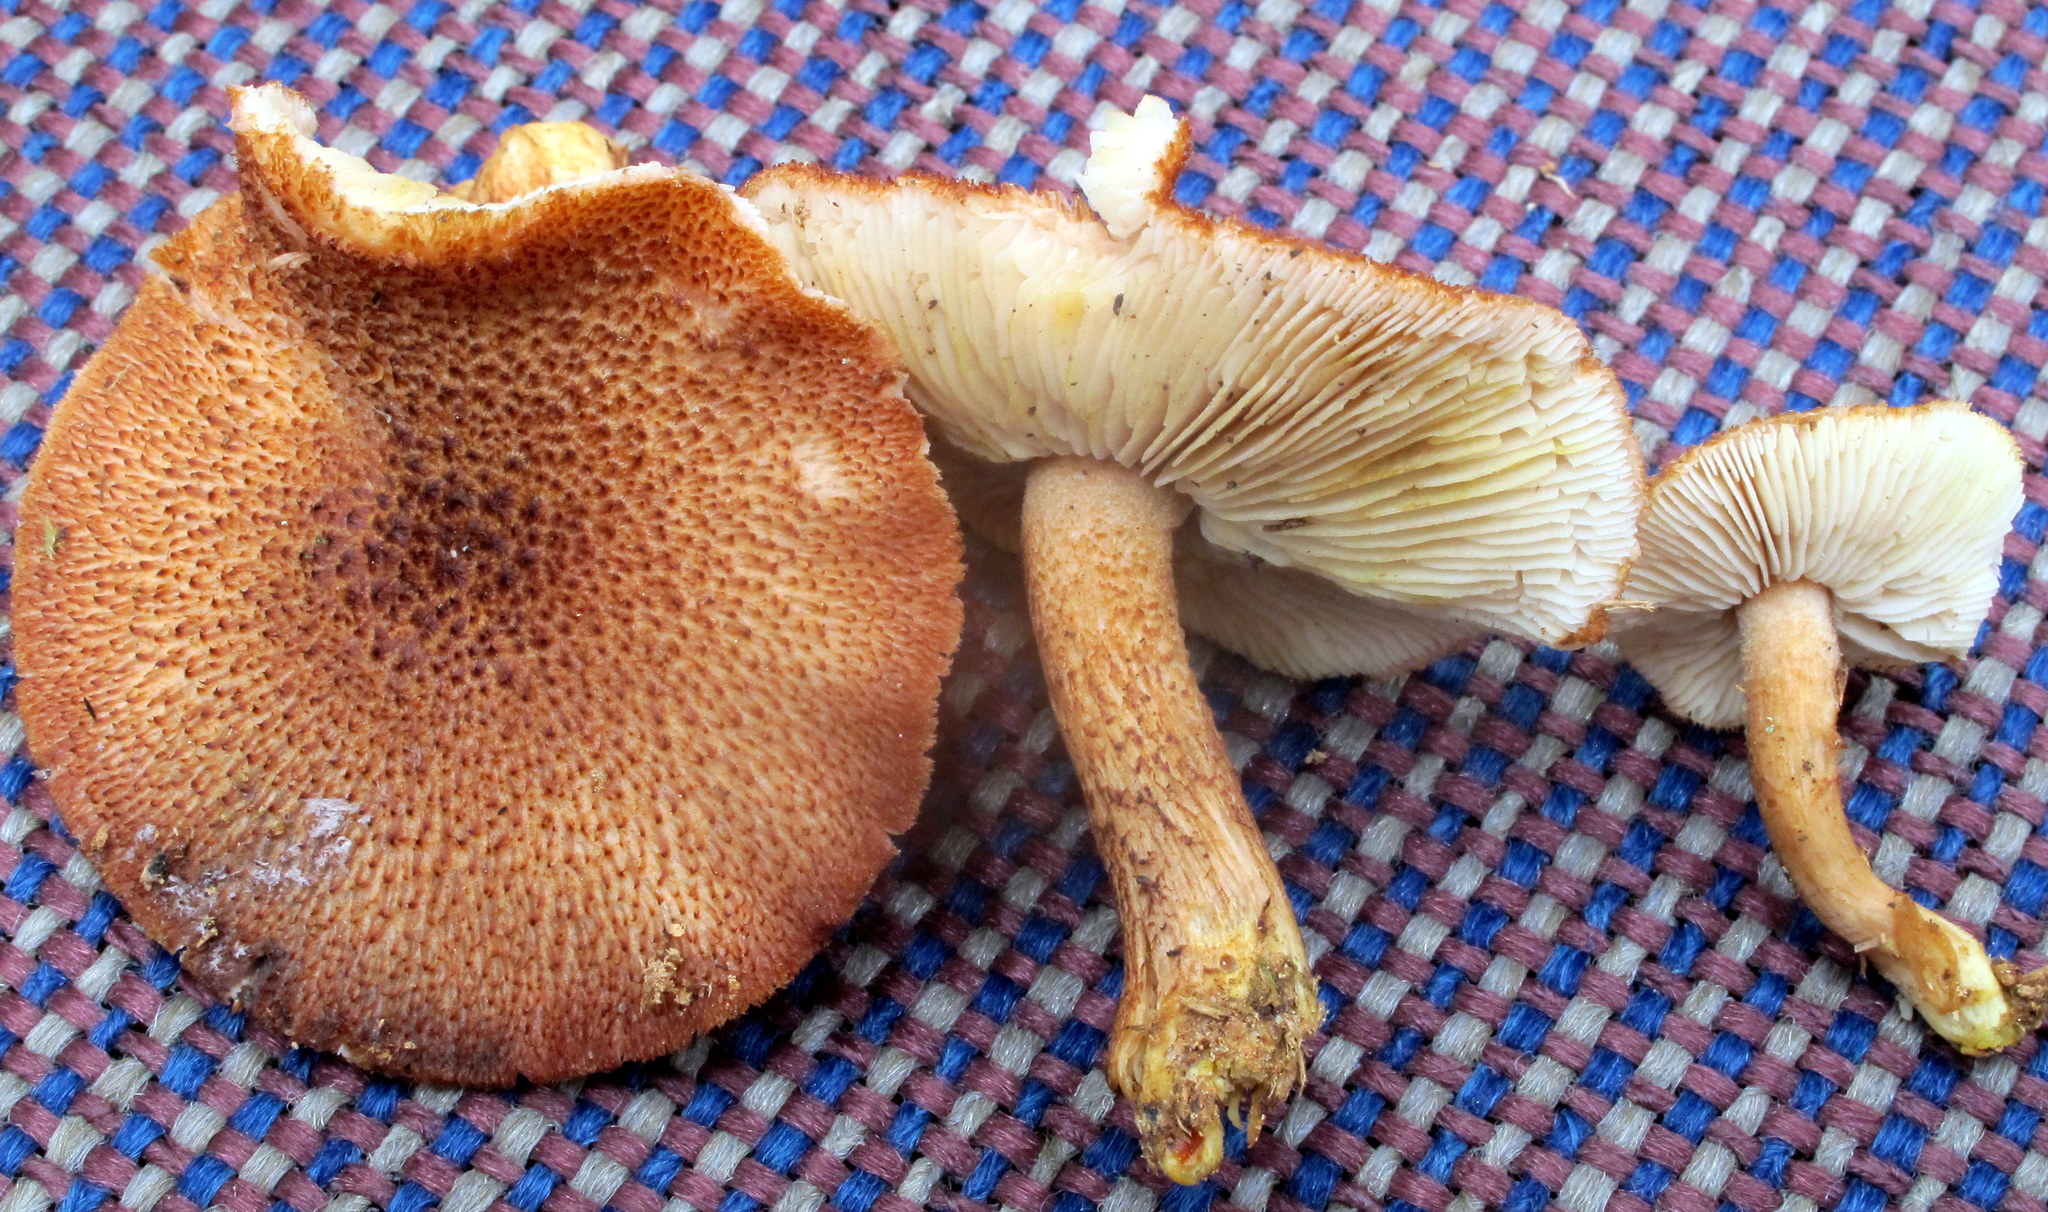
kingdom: Fungi
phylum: Basidiomycota
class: Agaricomycetes
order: Agaricales
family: Tricholomataceae
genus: Tricholomopsis
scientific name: Tricholomopsis formosa
